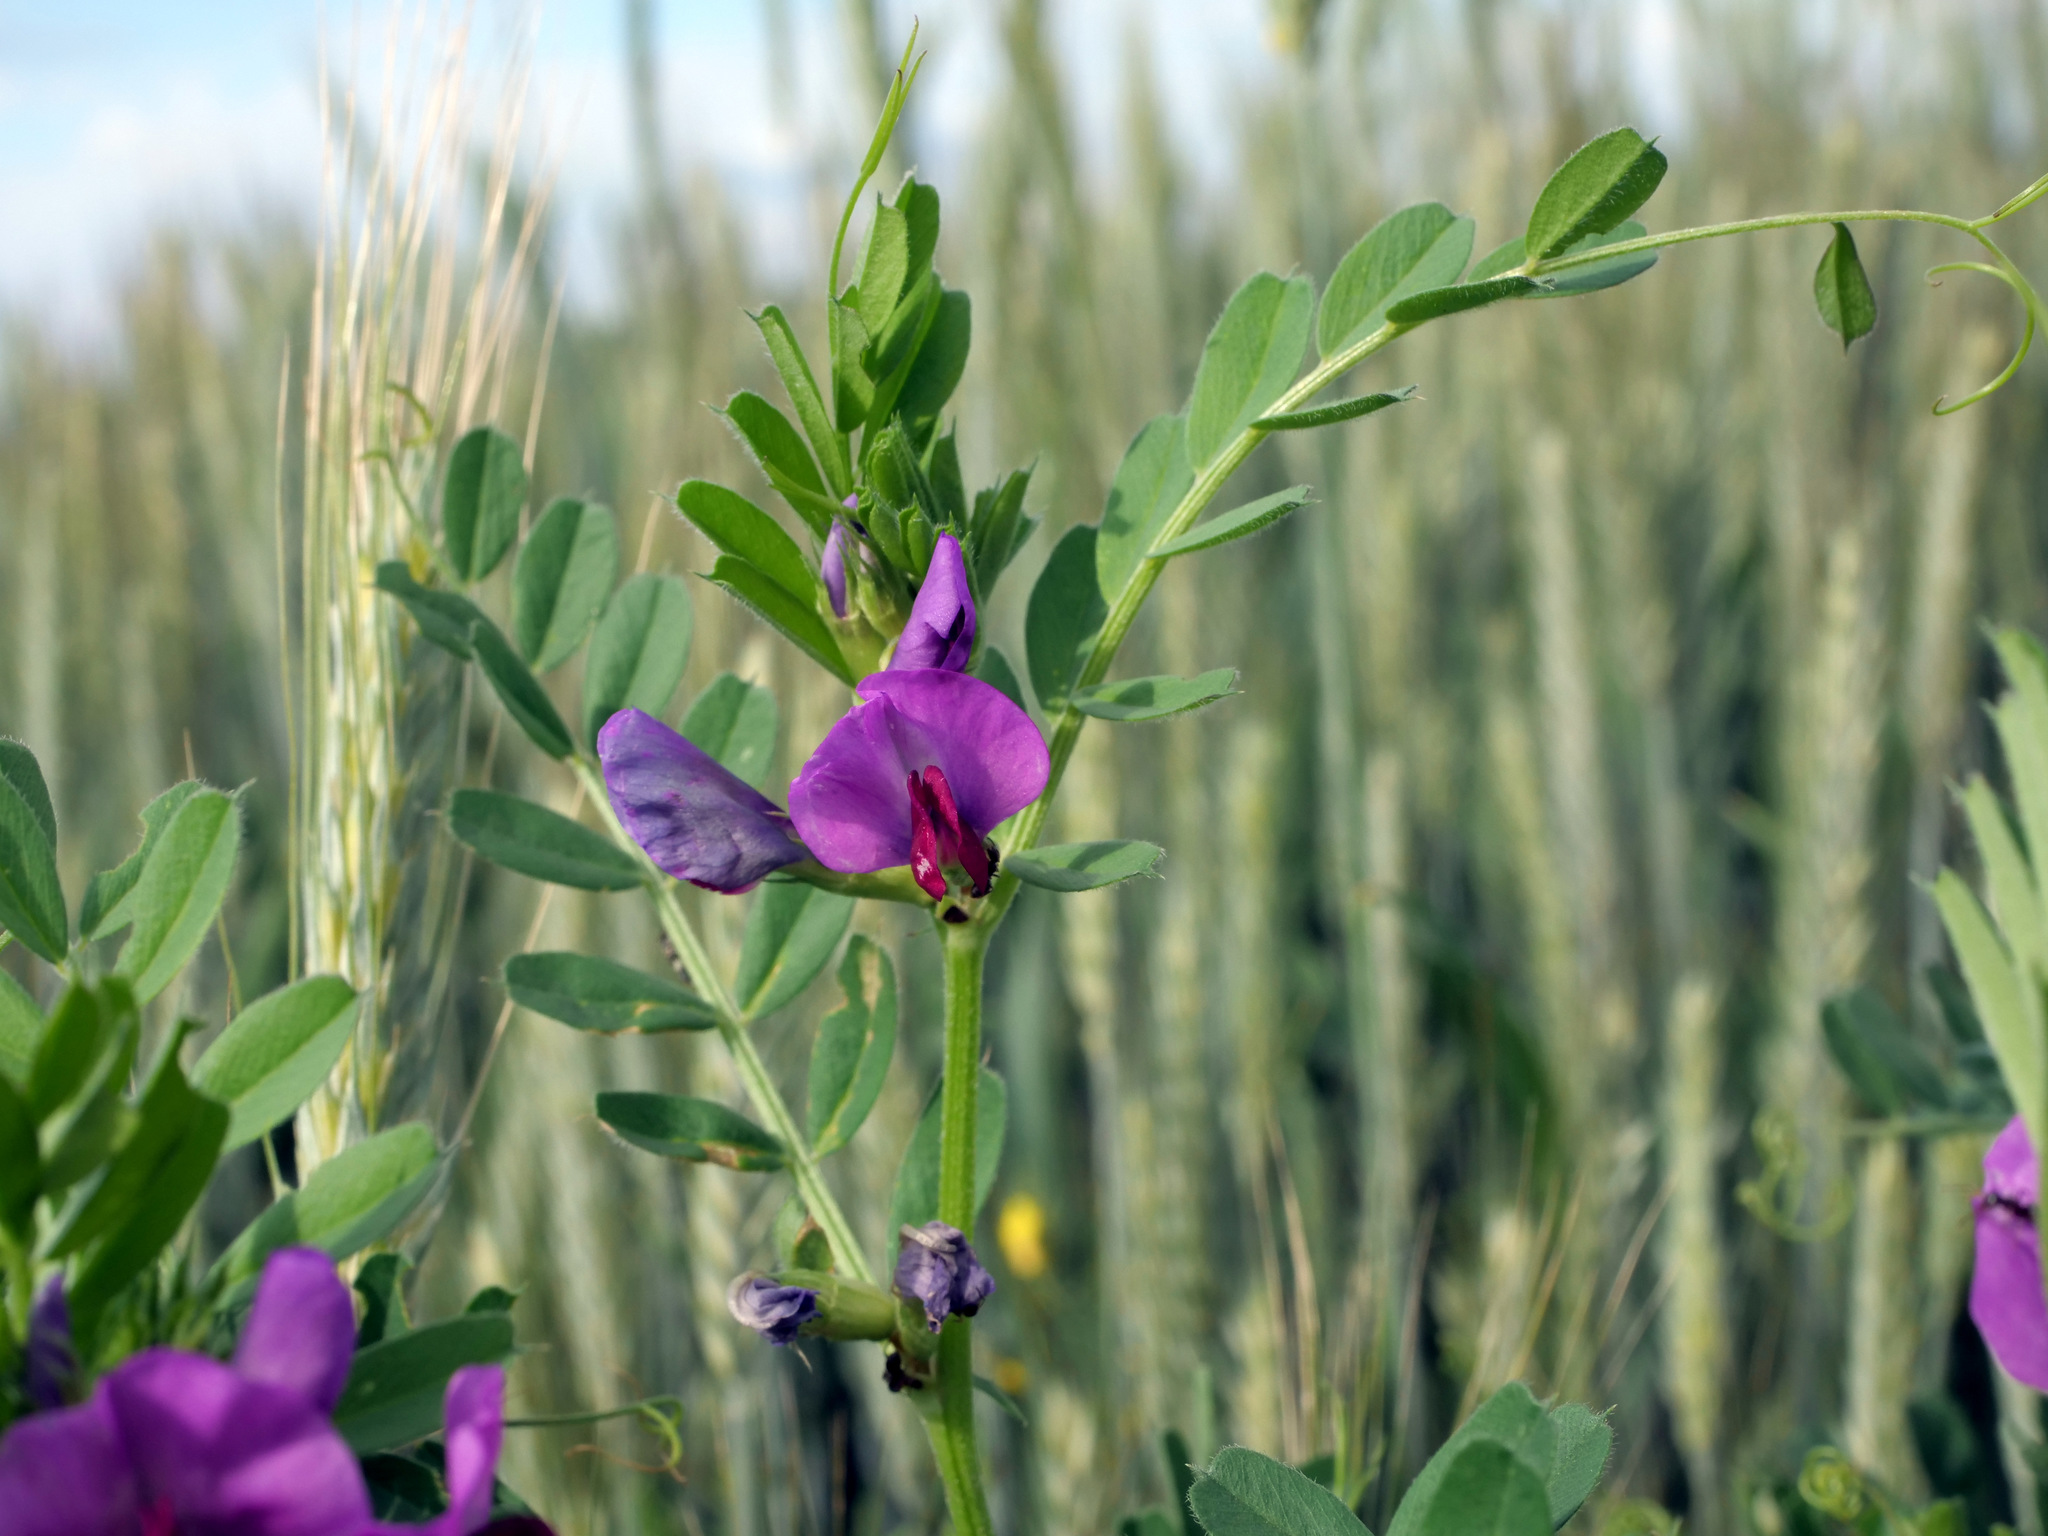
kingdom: Plantae
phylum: Tracheophyta
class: Magnoliopsida
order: Fabales
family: Fabaceae
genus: Vicia
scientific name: Vicia sativa
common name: Garden vetch
